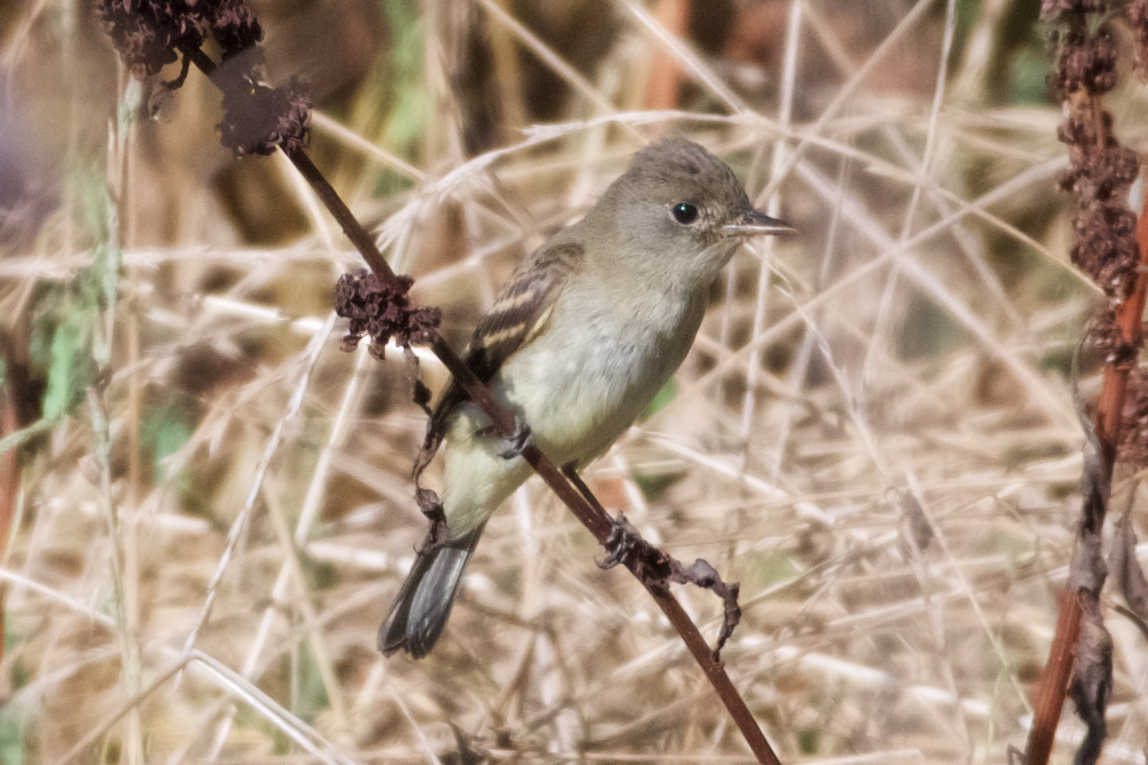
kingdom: Animalia
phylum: Chordata
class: Aves
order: Passeriformes
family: Tyrannidae
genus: Empidonax
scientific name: Empidonax traillii
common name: Willow flycatcher
